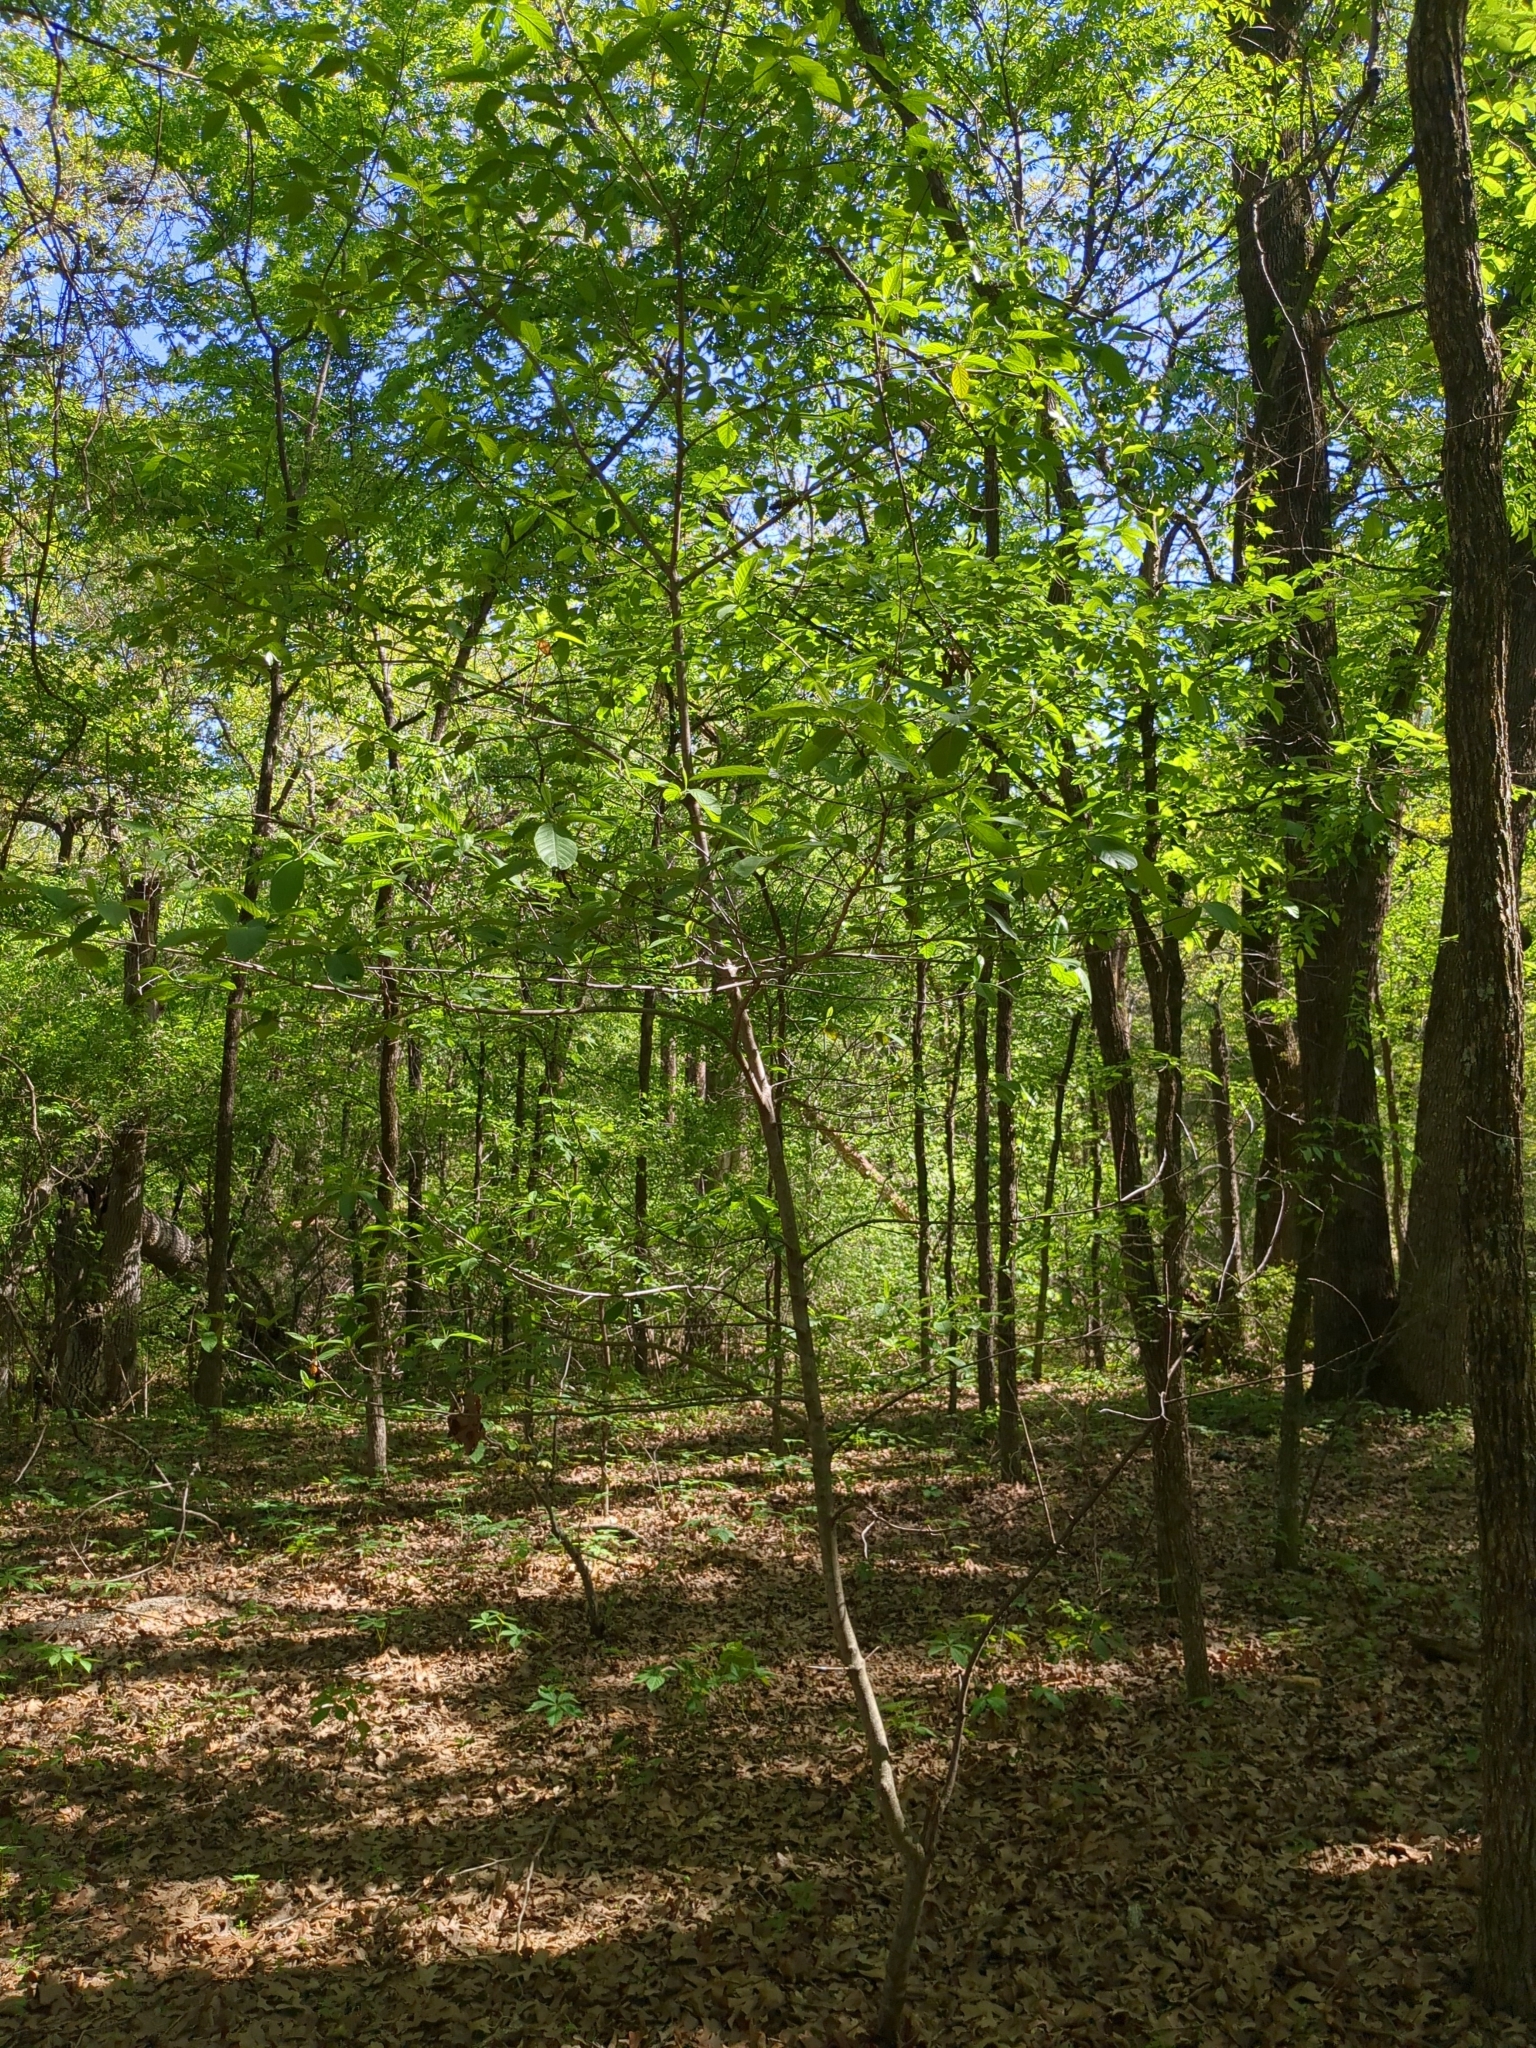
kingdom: Plantae
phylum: Tracheophyta
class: Magnoliopsida
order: Rosales
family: Rhamnaceae
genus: Frangula
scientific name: Frangula caroliniana
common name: Carolina buckthorn
